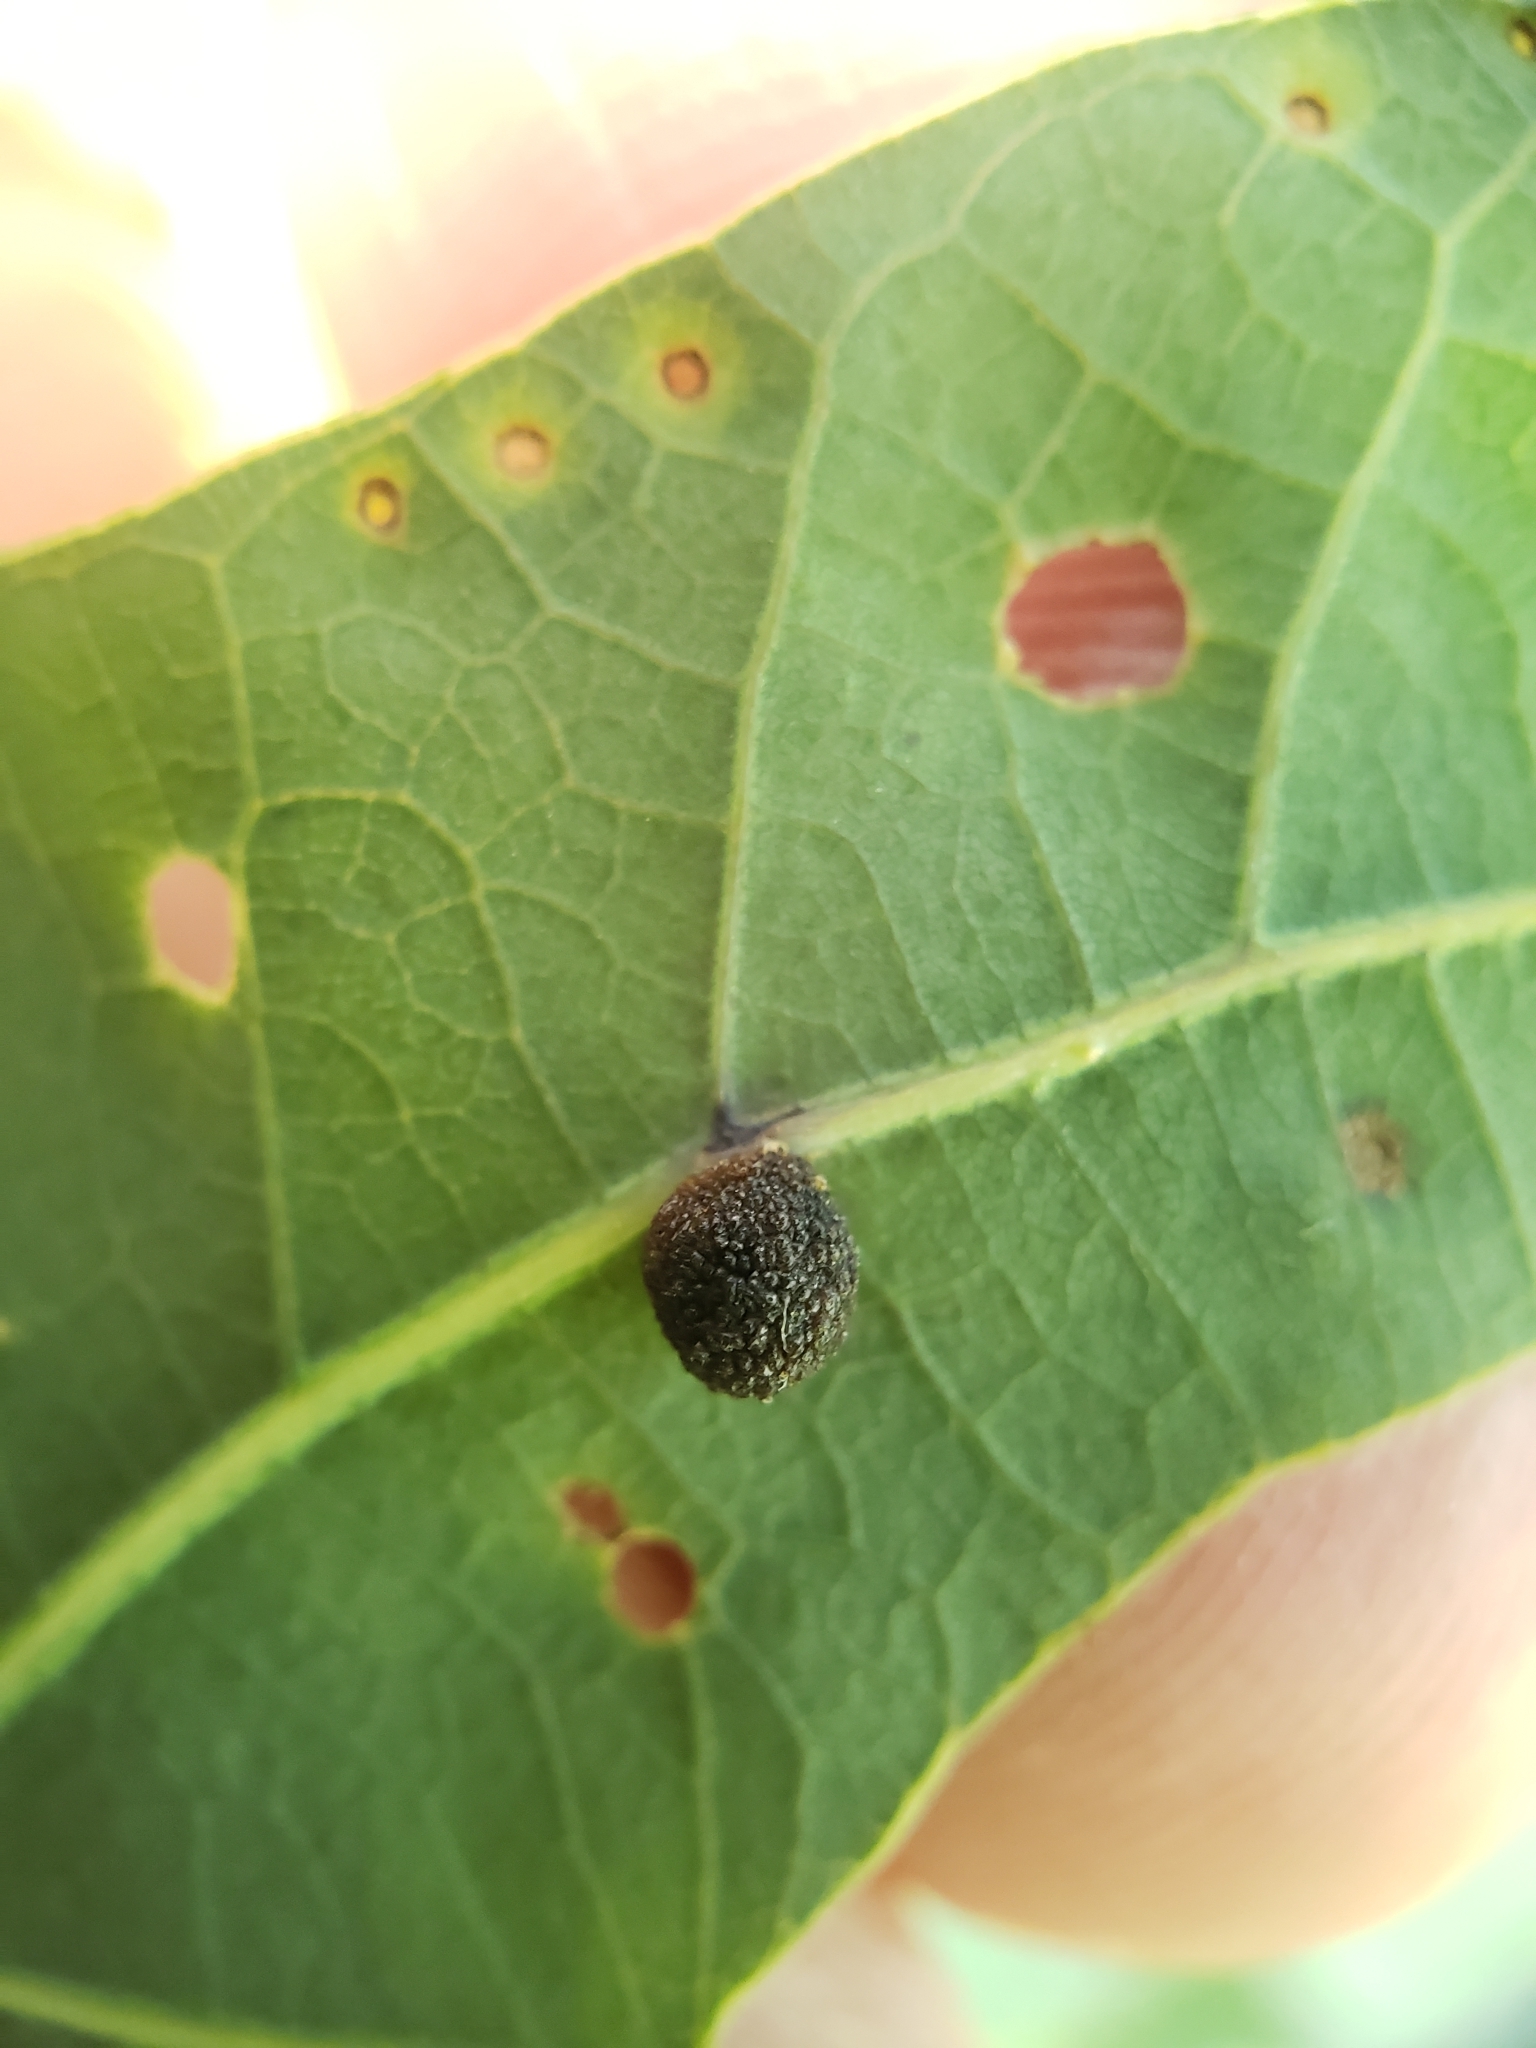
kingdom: Animalia
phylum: Arthropoda
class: Insecta
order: Hymenoptera
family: Cynipidae
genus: Acraspis
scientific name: Acraspis
